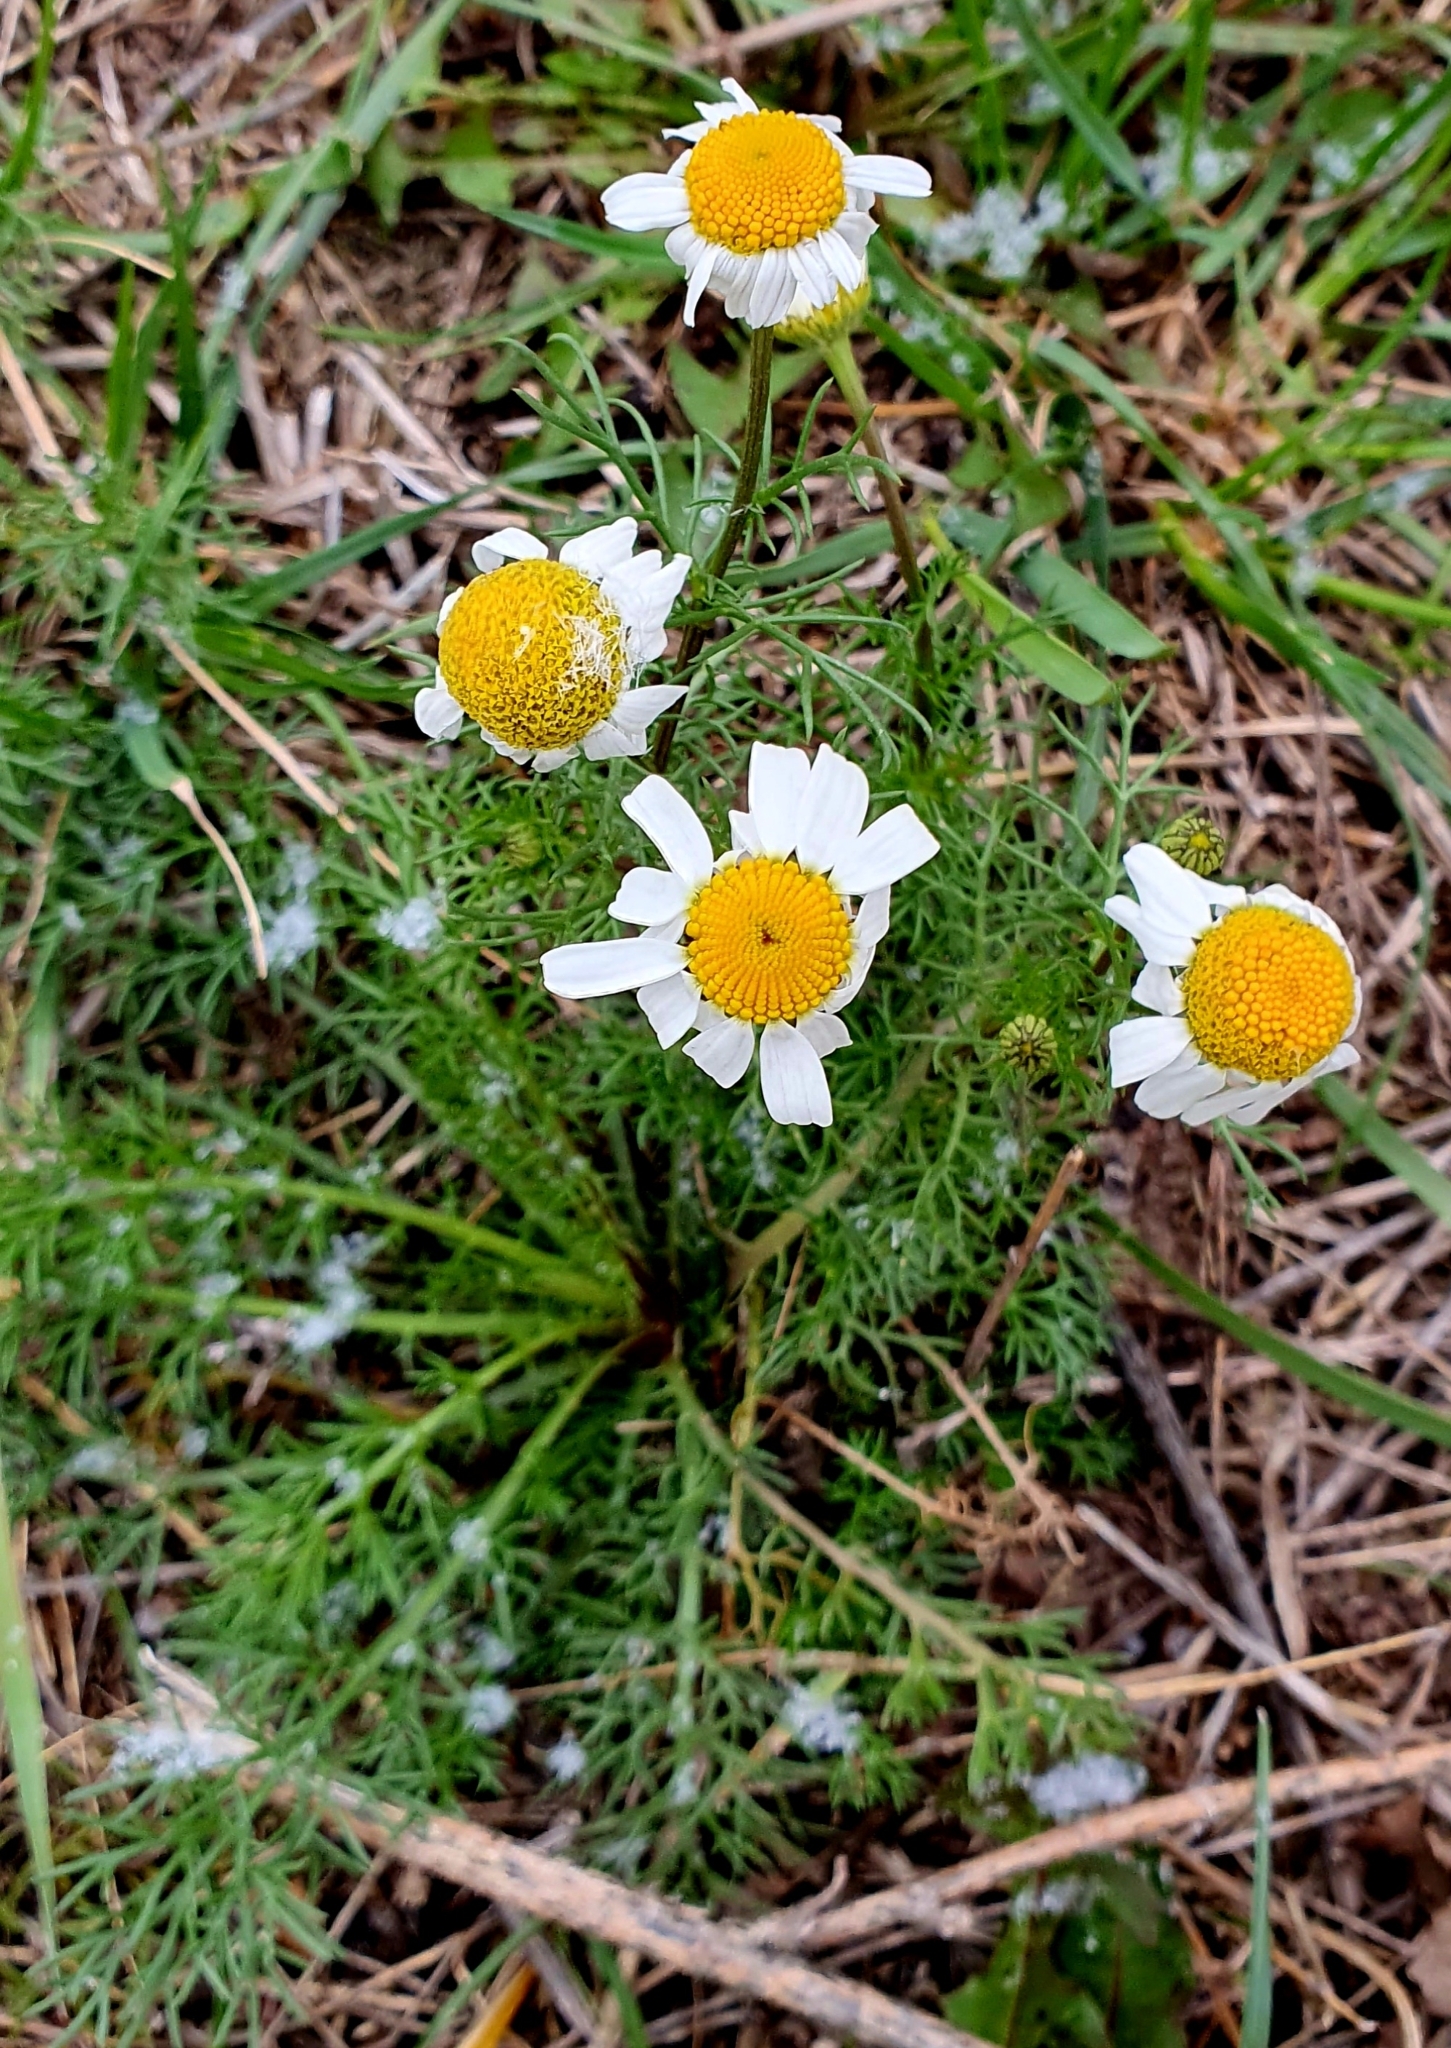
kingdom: Plantae
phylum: Tracheophyta
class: Magnoliopsida
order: Asterales
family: Asteraceae
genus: Tripleurospermum
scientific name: Tripleurospermum inodorum
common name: Scentless mayweed
